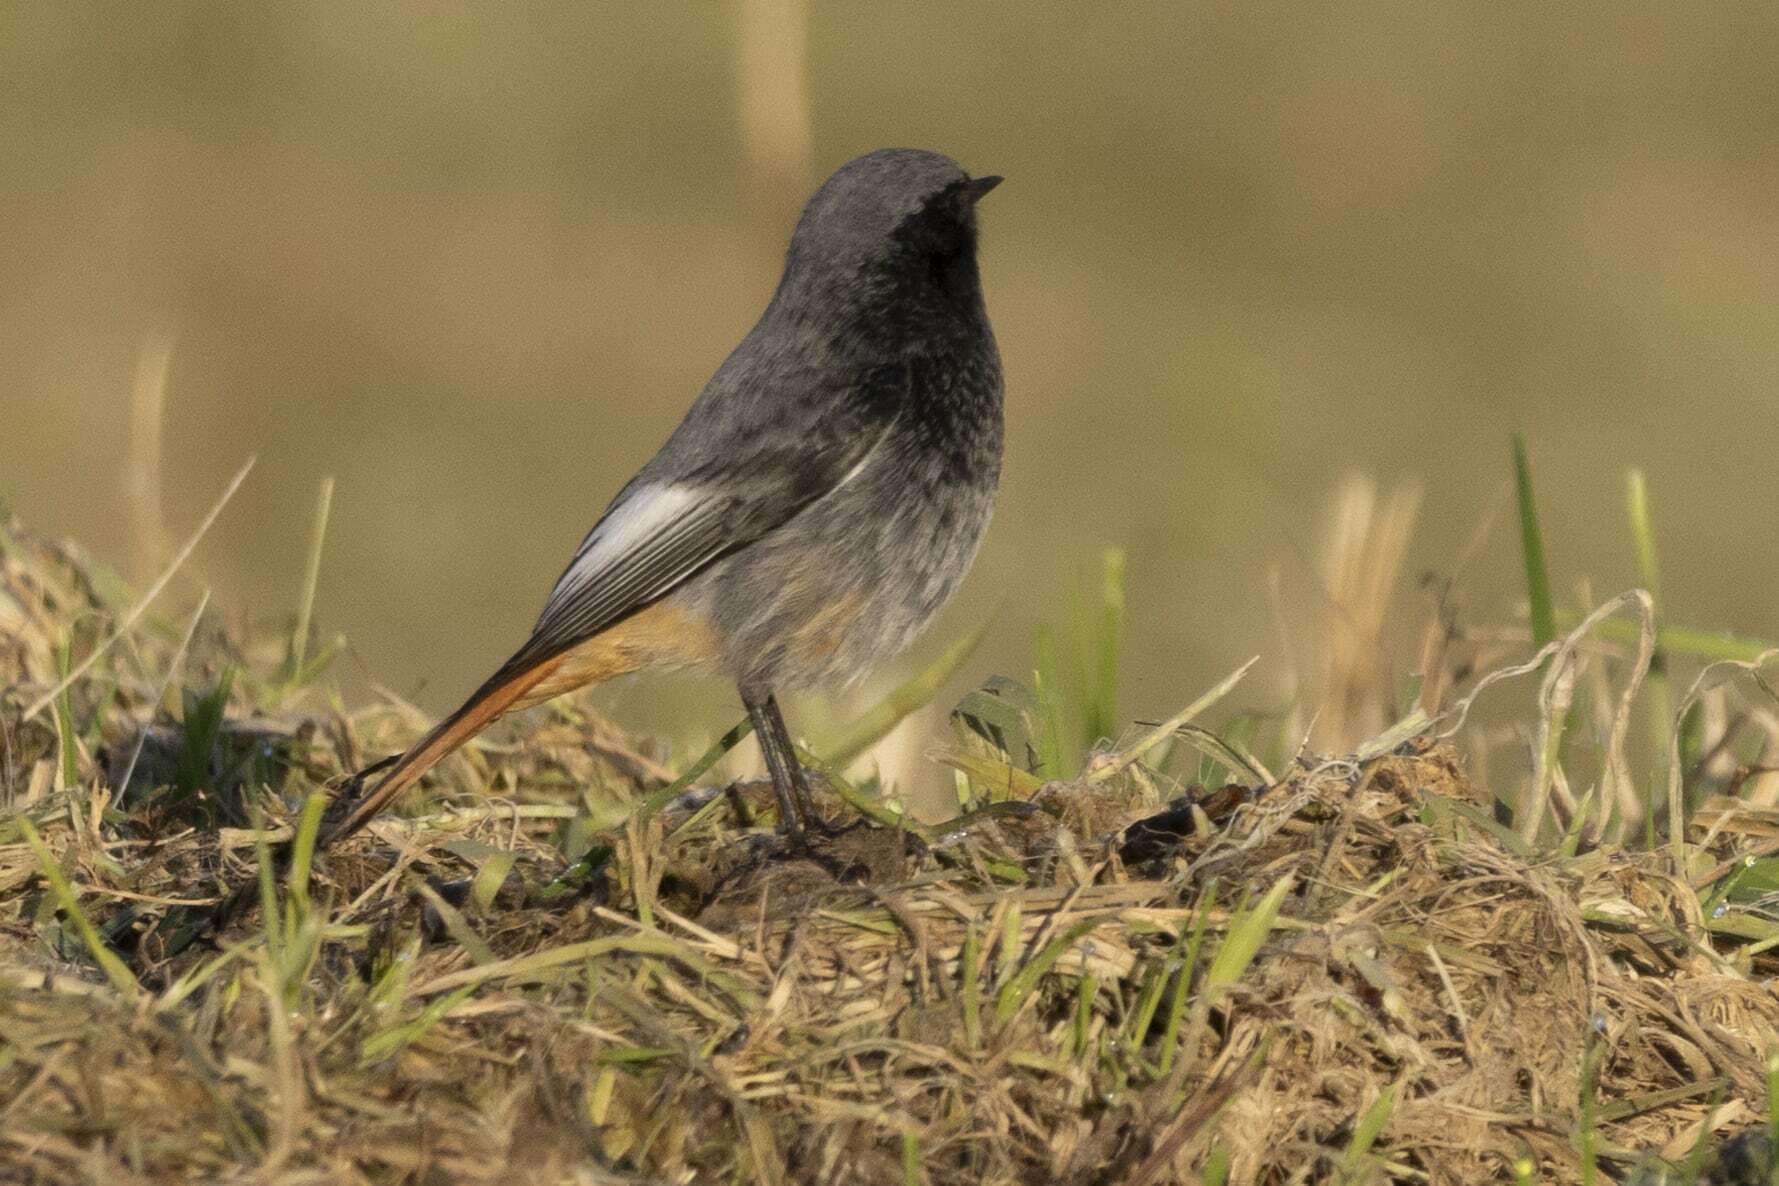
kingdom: Animalia
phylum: Chordata
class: Aves
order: Passeriformes
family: Muscicapidae
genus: Phoenicurus
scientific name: Phoenicurus ochruros
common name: Black redstart
